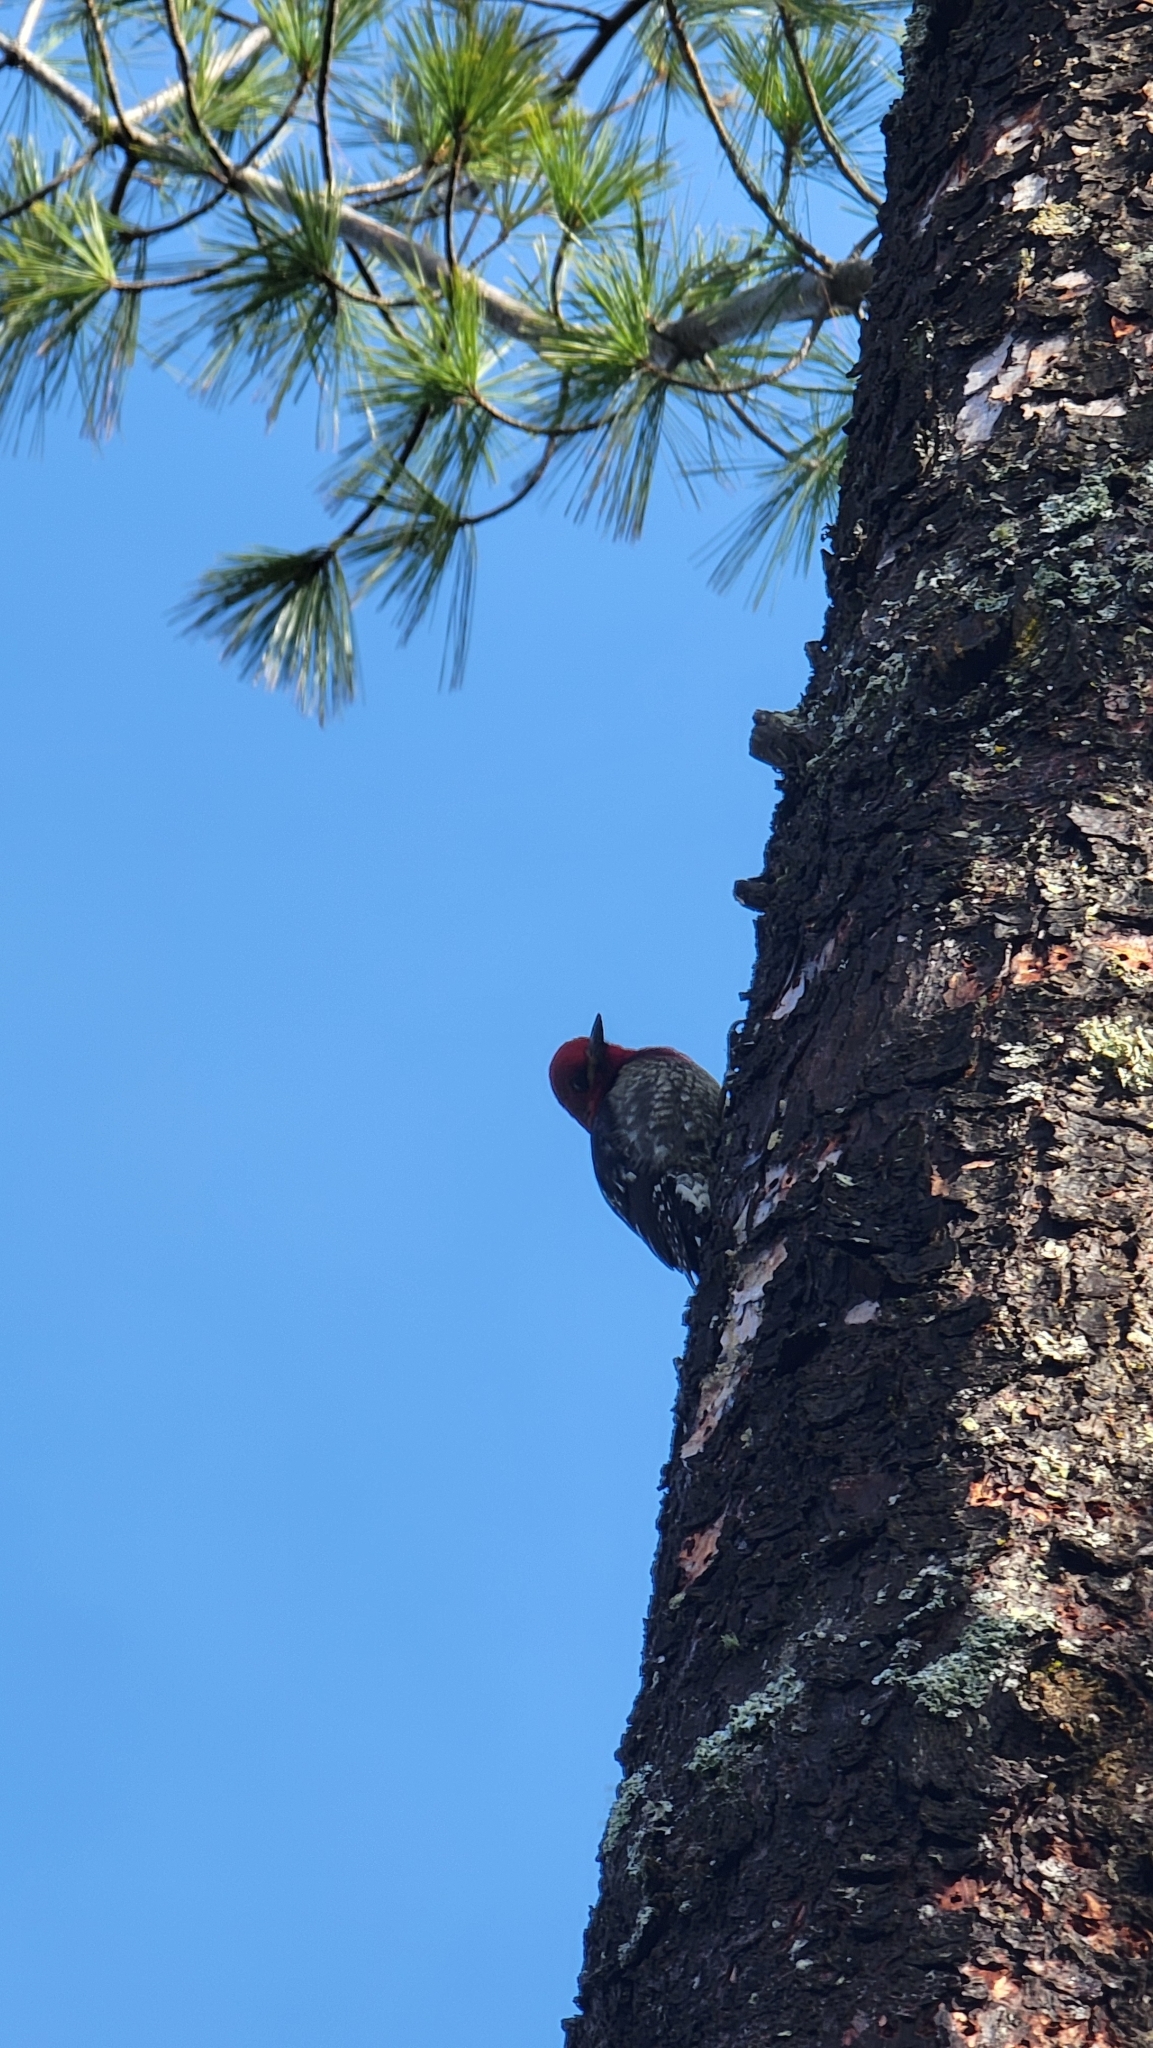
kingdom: Animalia
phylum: Chordata
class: Aves
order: Piciformes
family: Picidae
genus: Sphyrapicus
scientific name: Sphyrapicus ruber
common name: Red-breasted sapsucker
